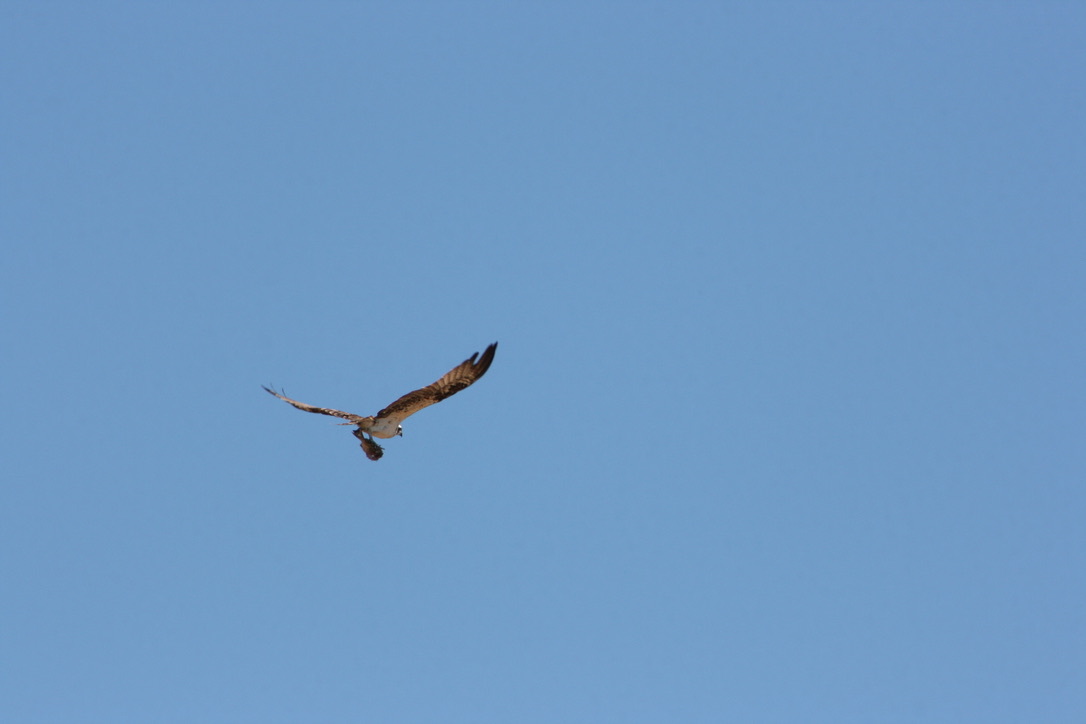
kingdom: Animalia
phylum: Chordata
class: Aves
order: Accipitriformes
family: Pandionidae
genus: Pandion
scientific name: Pandion haliaetus
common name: Osprey
